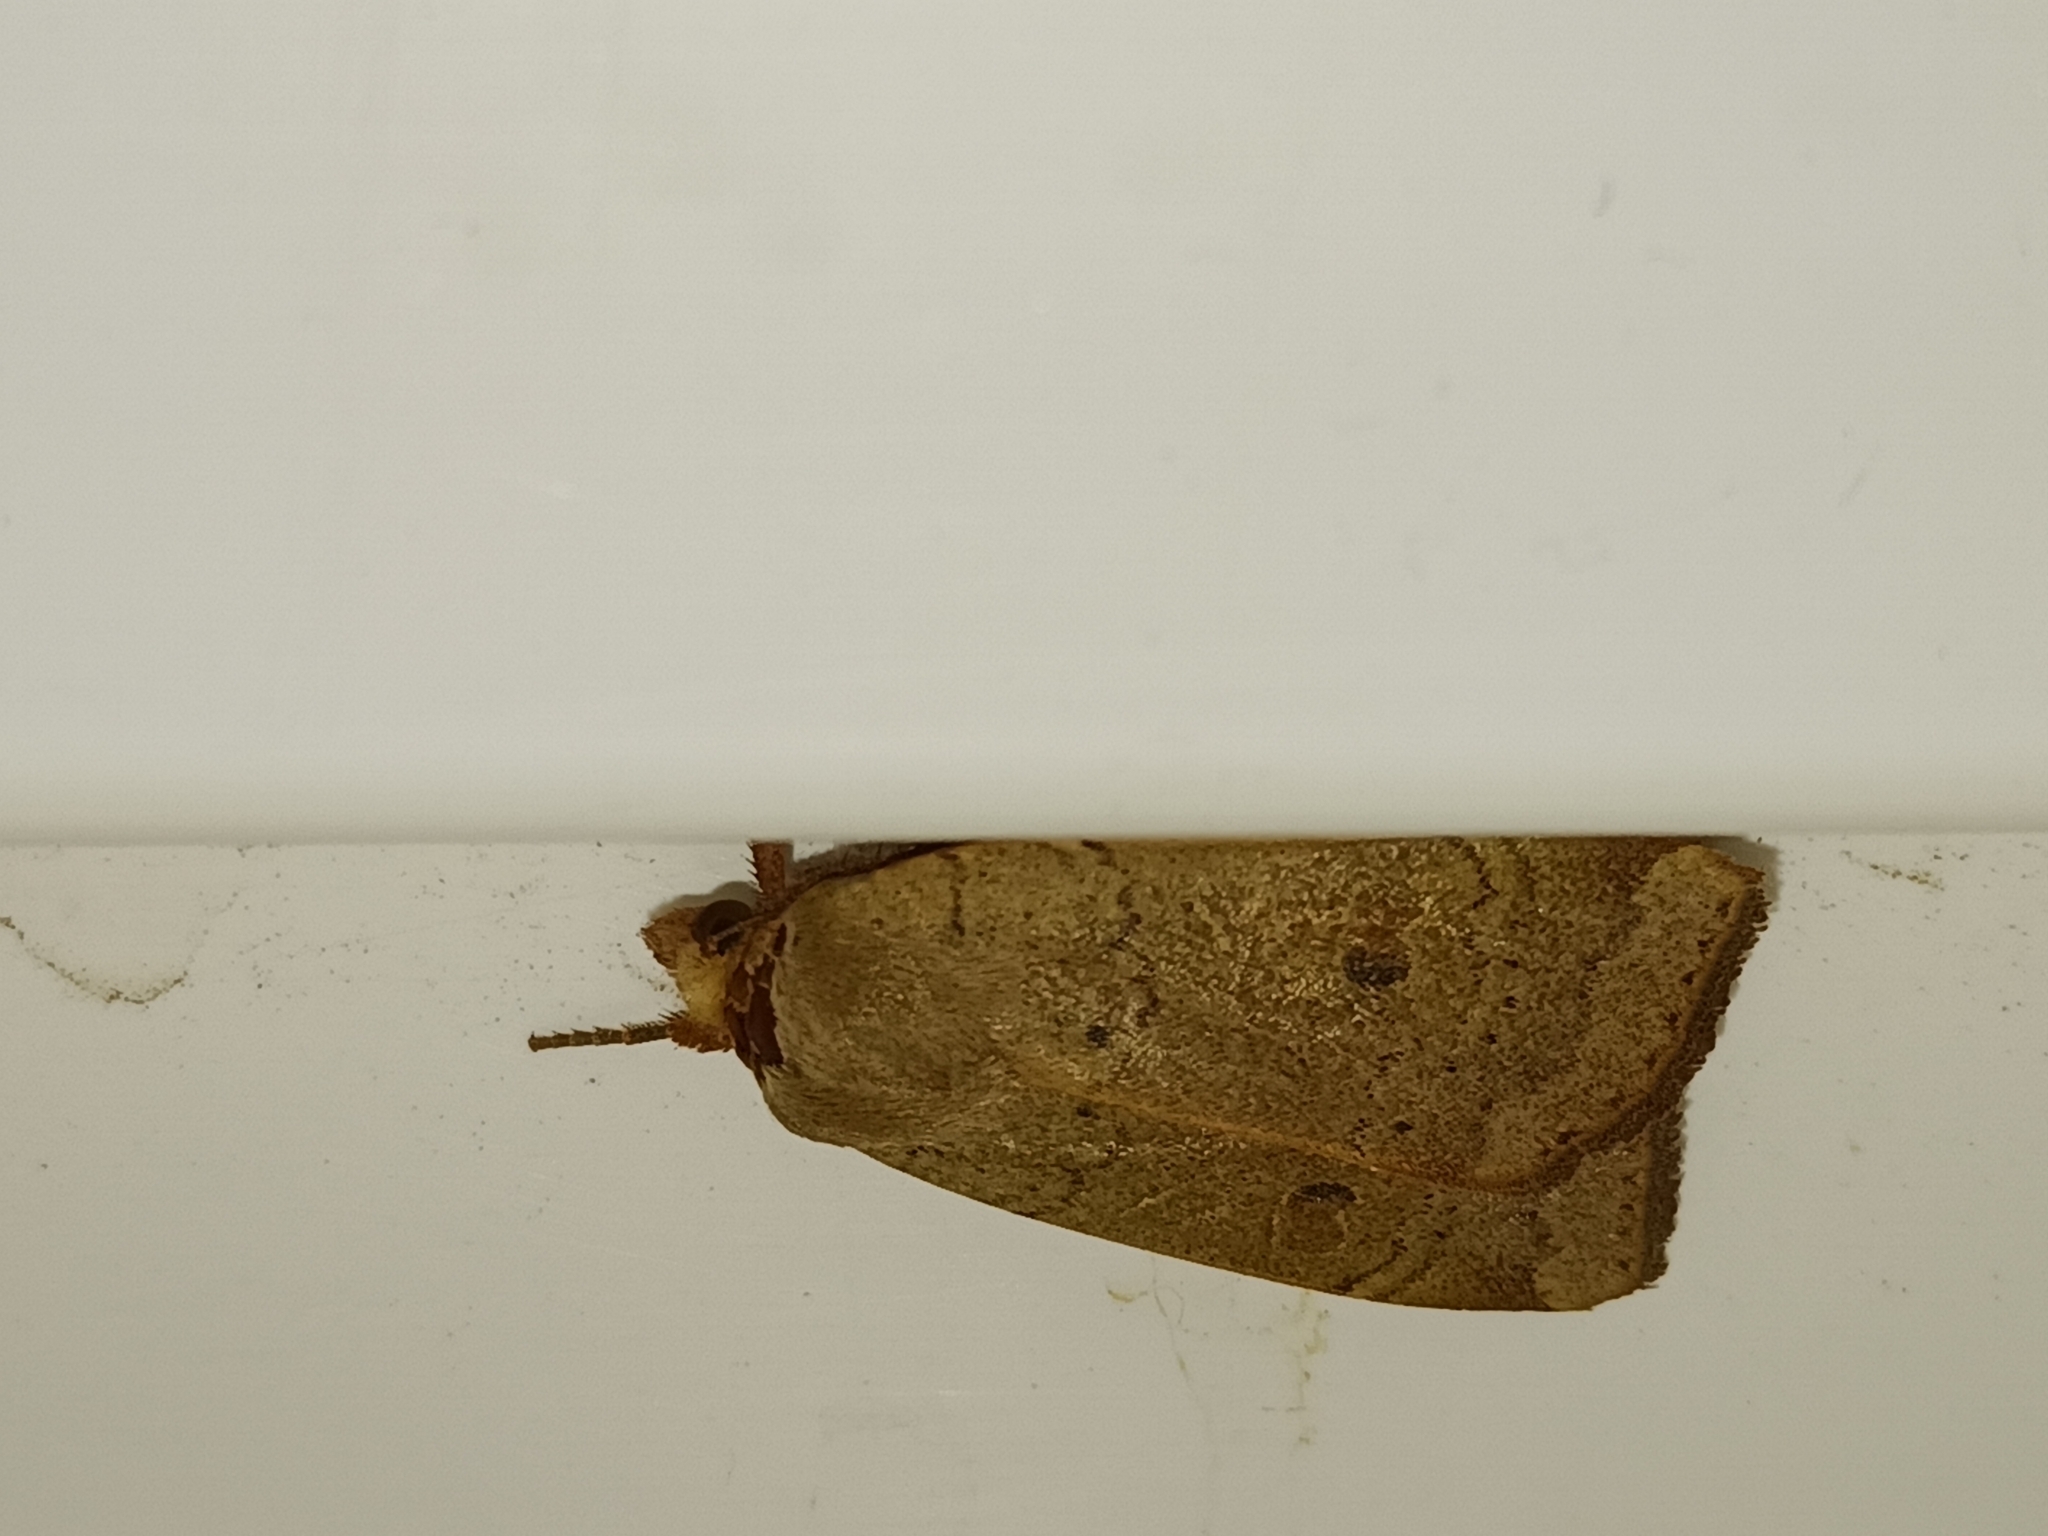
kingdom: Animalia
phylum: Arthropoda
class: Insecta
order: Lepidoptera
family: Noctuidae
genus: Noctua
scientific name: Noctua comes
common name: Lesser yellow underwing
